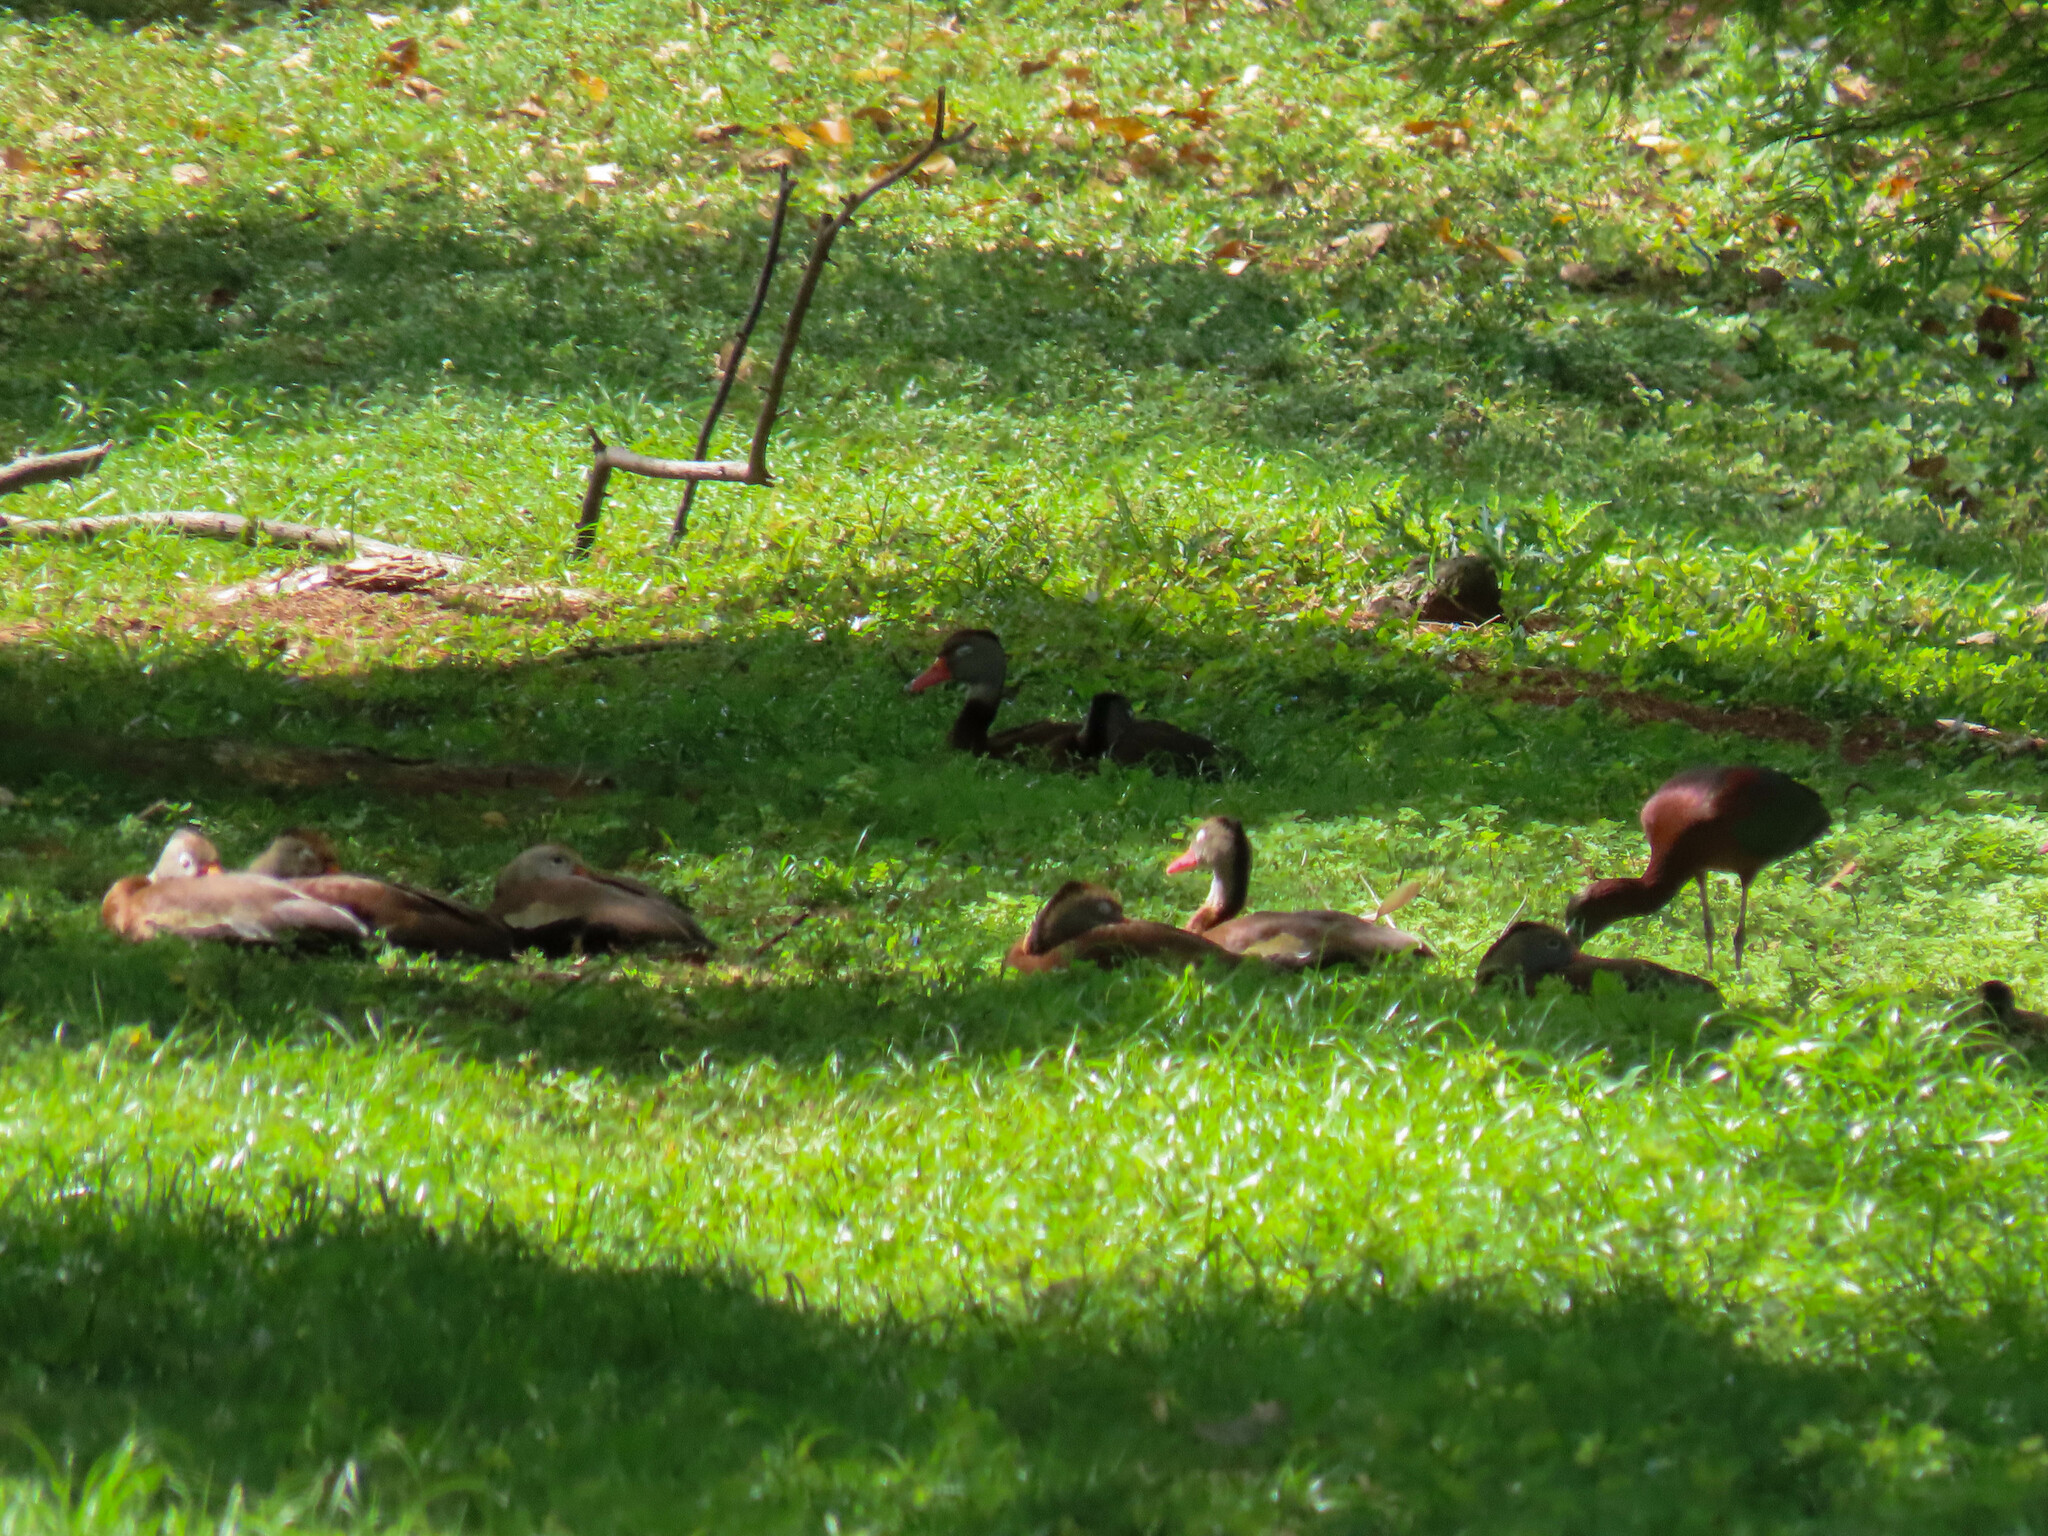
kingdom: Animalia
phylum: Chordata
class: Aves
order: Anseriformes
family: Anatidae
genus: Dendrocygna
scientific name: Dendrocygna autumnalis
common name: Black-bellied whistling duck
